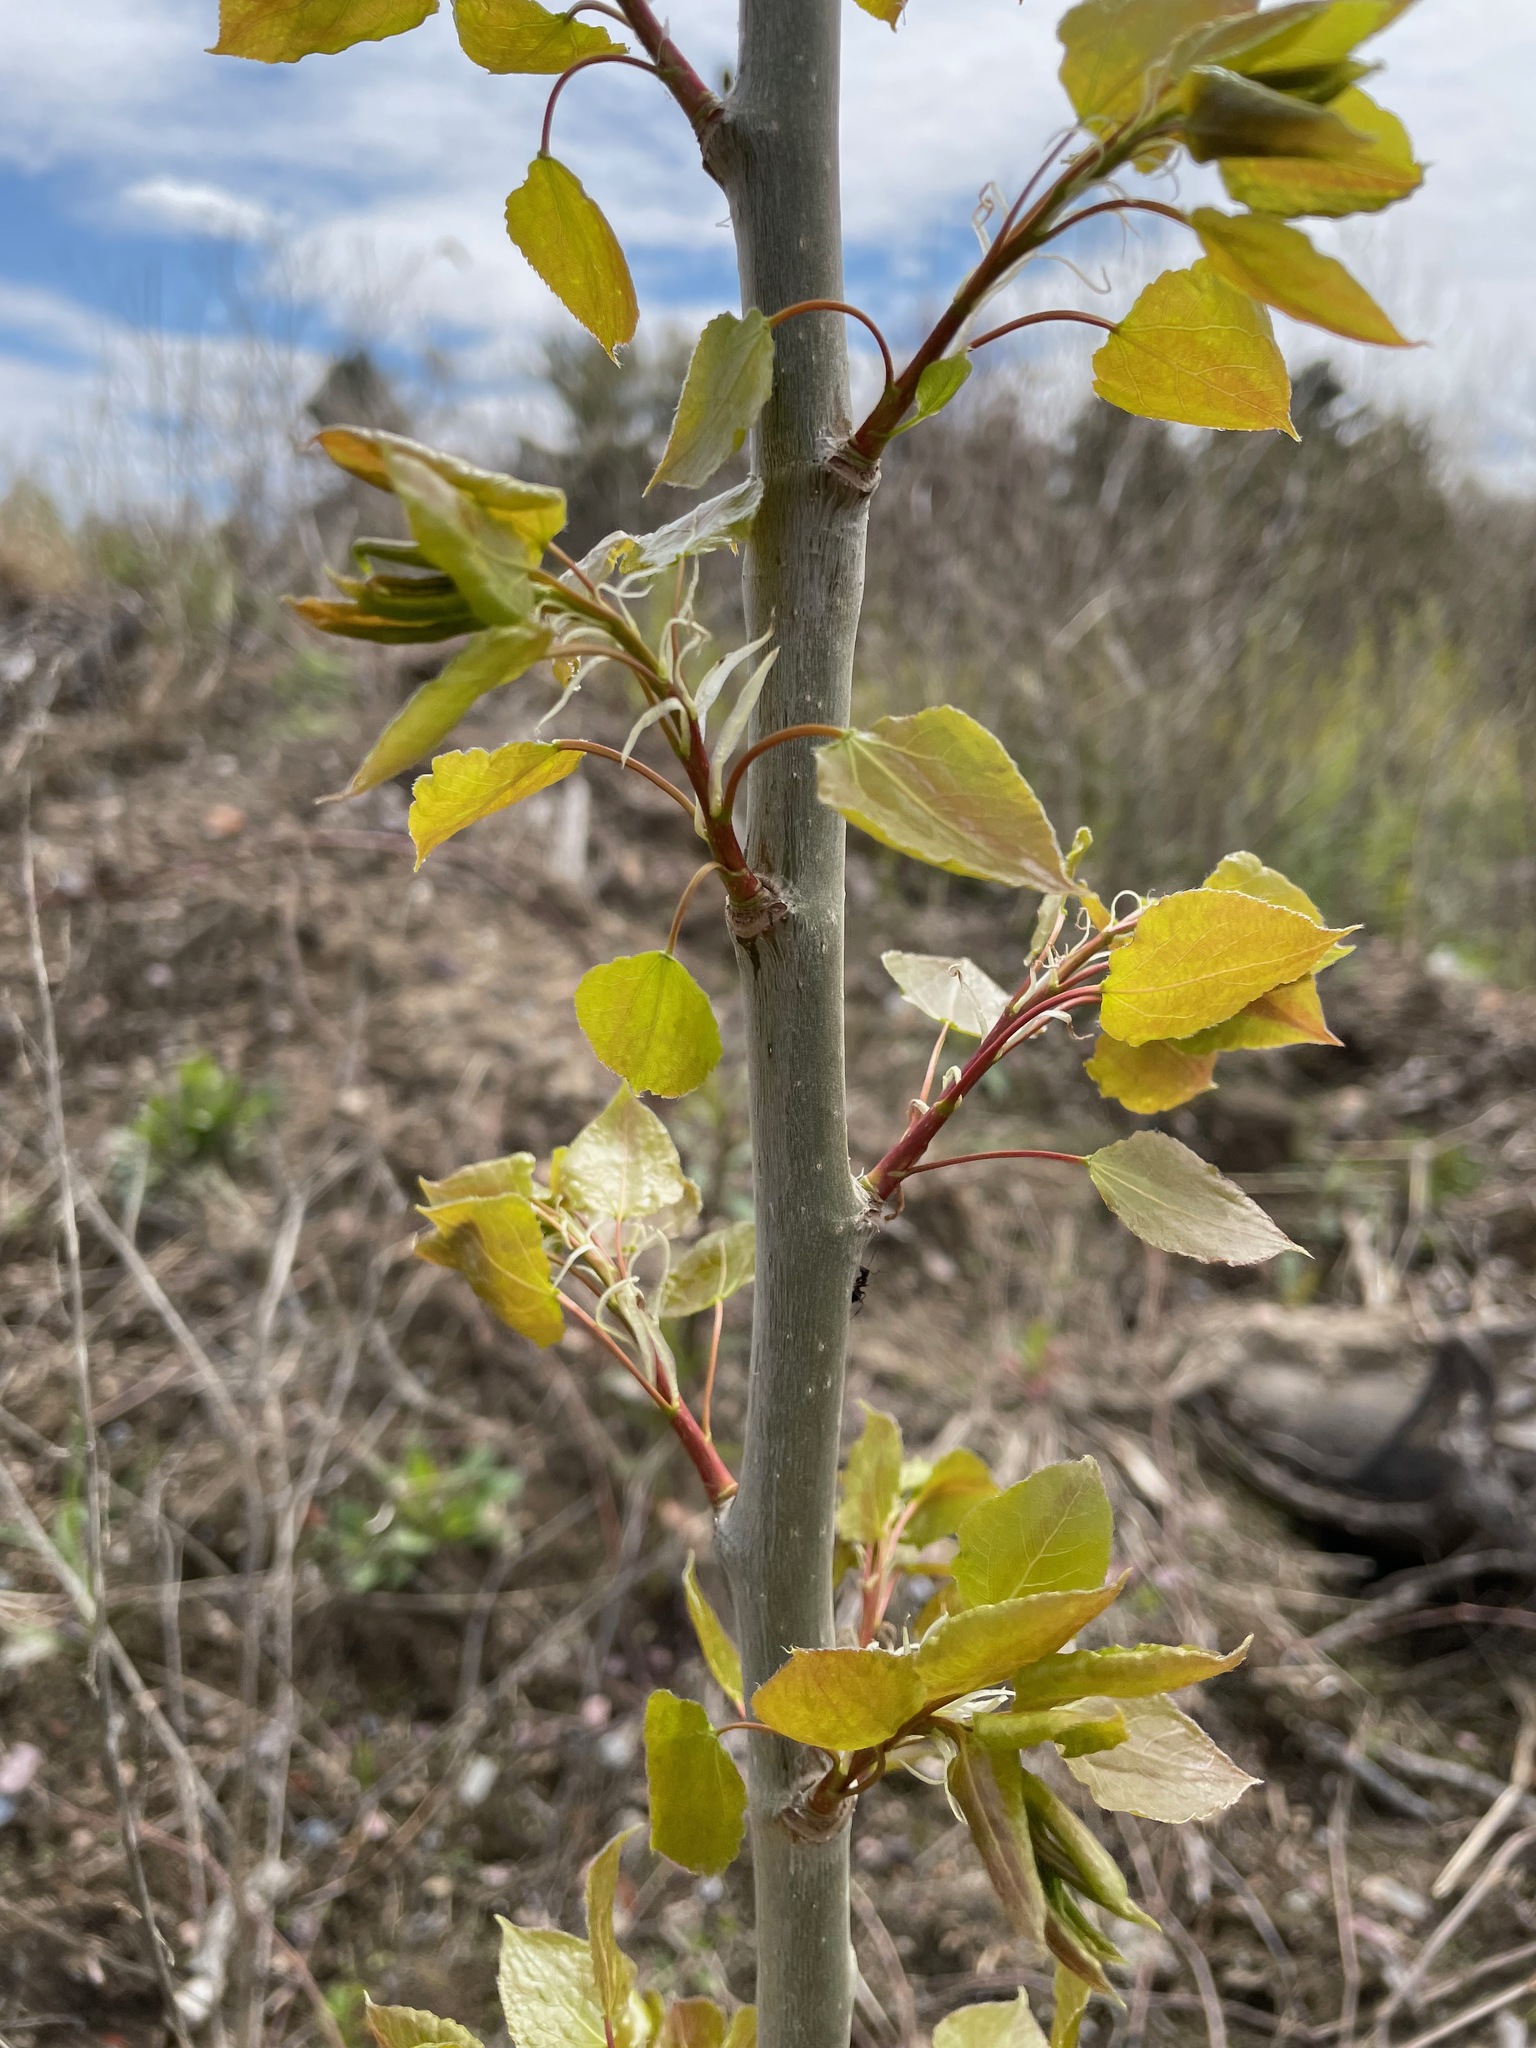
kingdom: Plantae
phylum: Tracheophyta
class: Magnoliopsida
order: Malpighiales
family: Salicaceae
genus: Populus
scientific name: Populus tremuloides
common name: Quaking aspen
